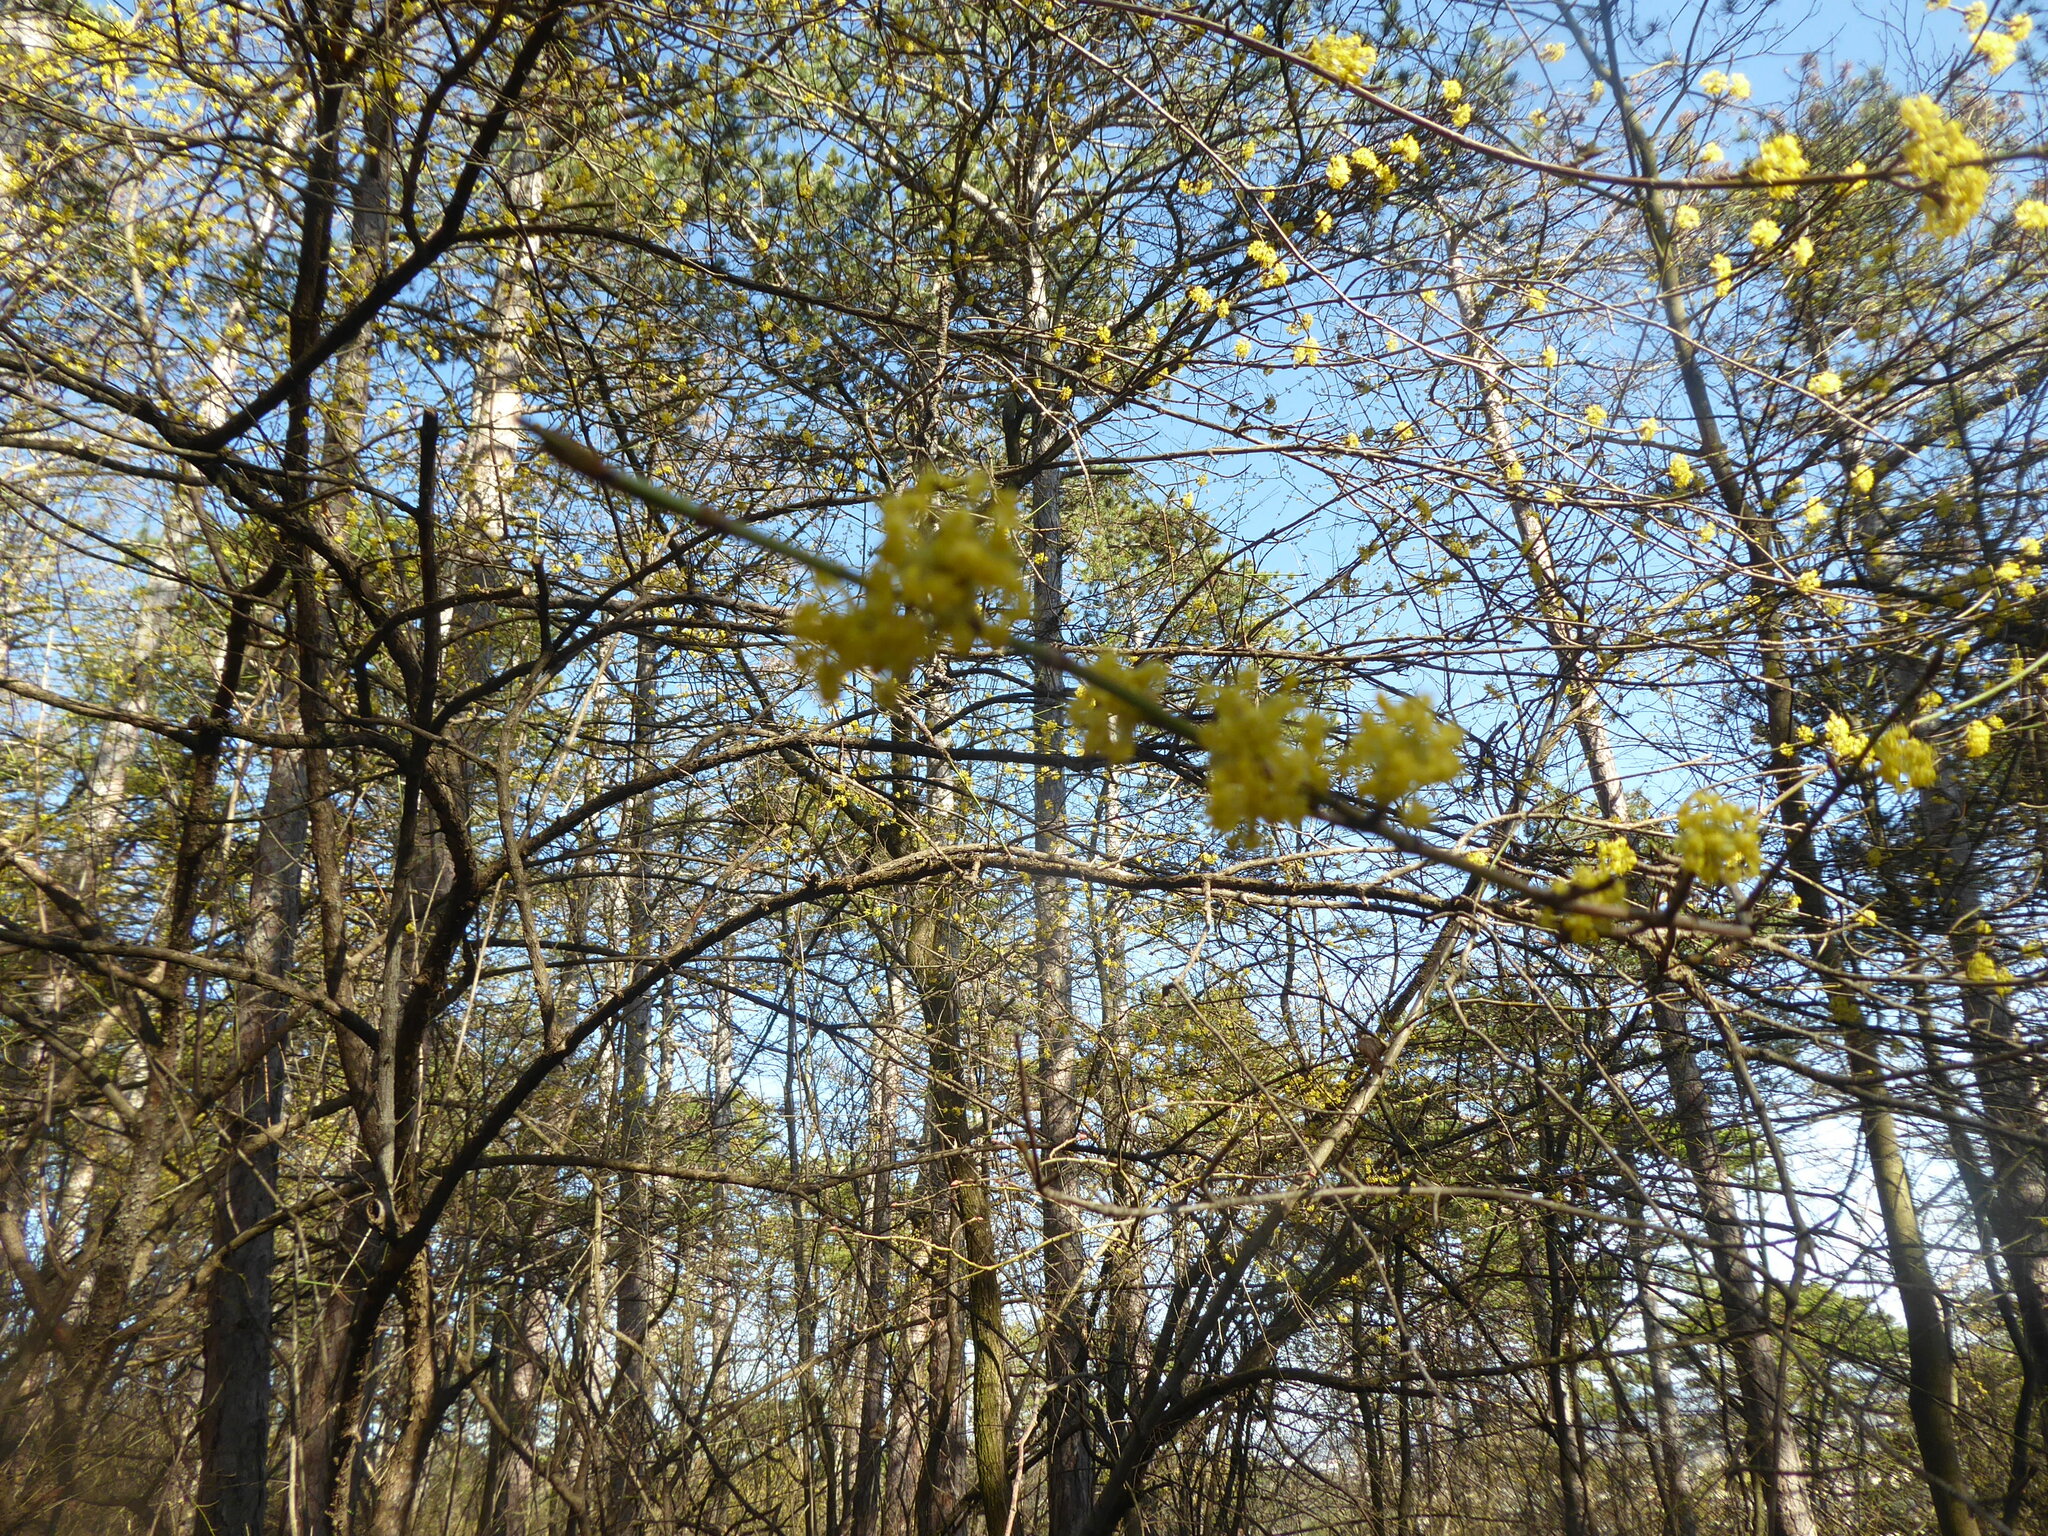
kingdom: Plantae
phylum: Tracheophyta
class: Magnoliopsida
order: Cornales
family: Cornaceae
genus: Cornus
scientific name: Cornus mas
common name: Cornelian-cherry
